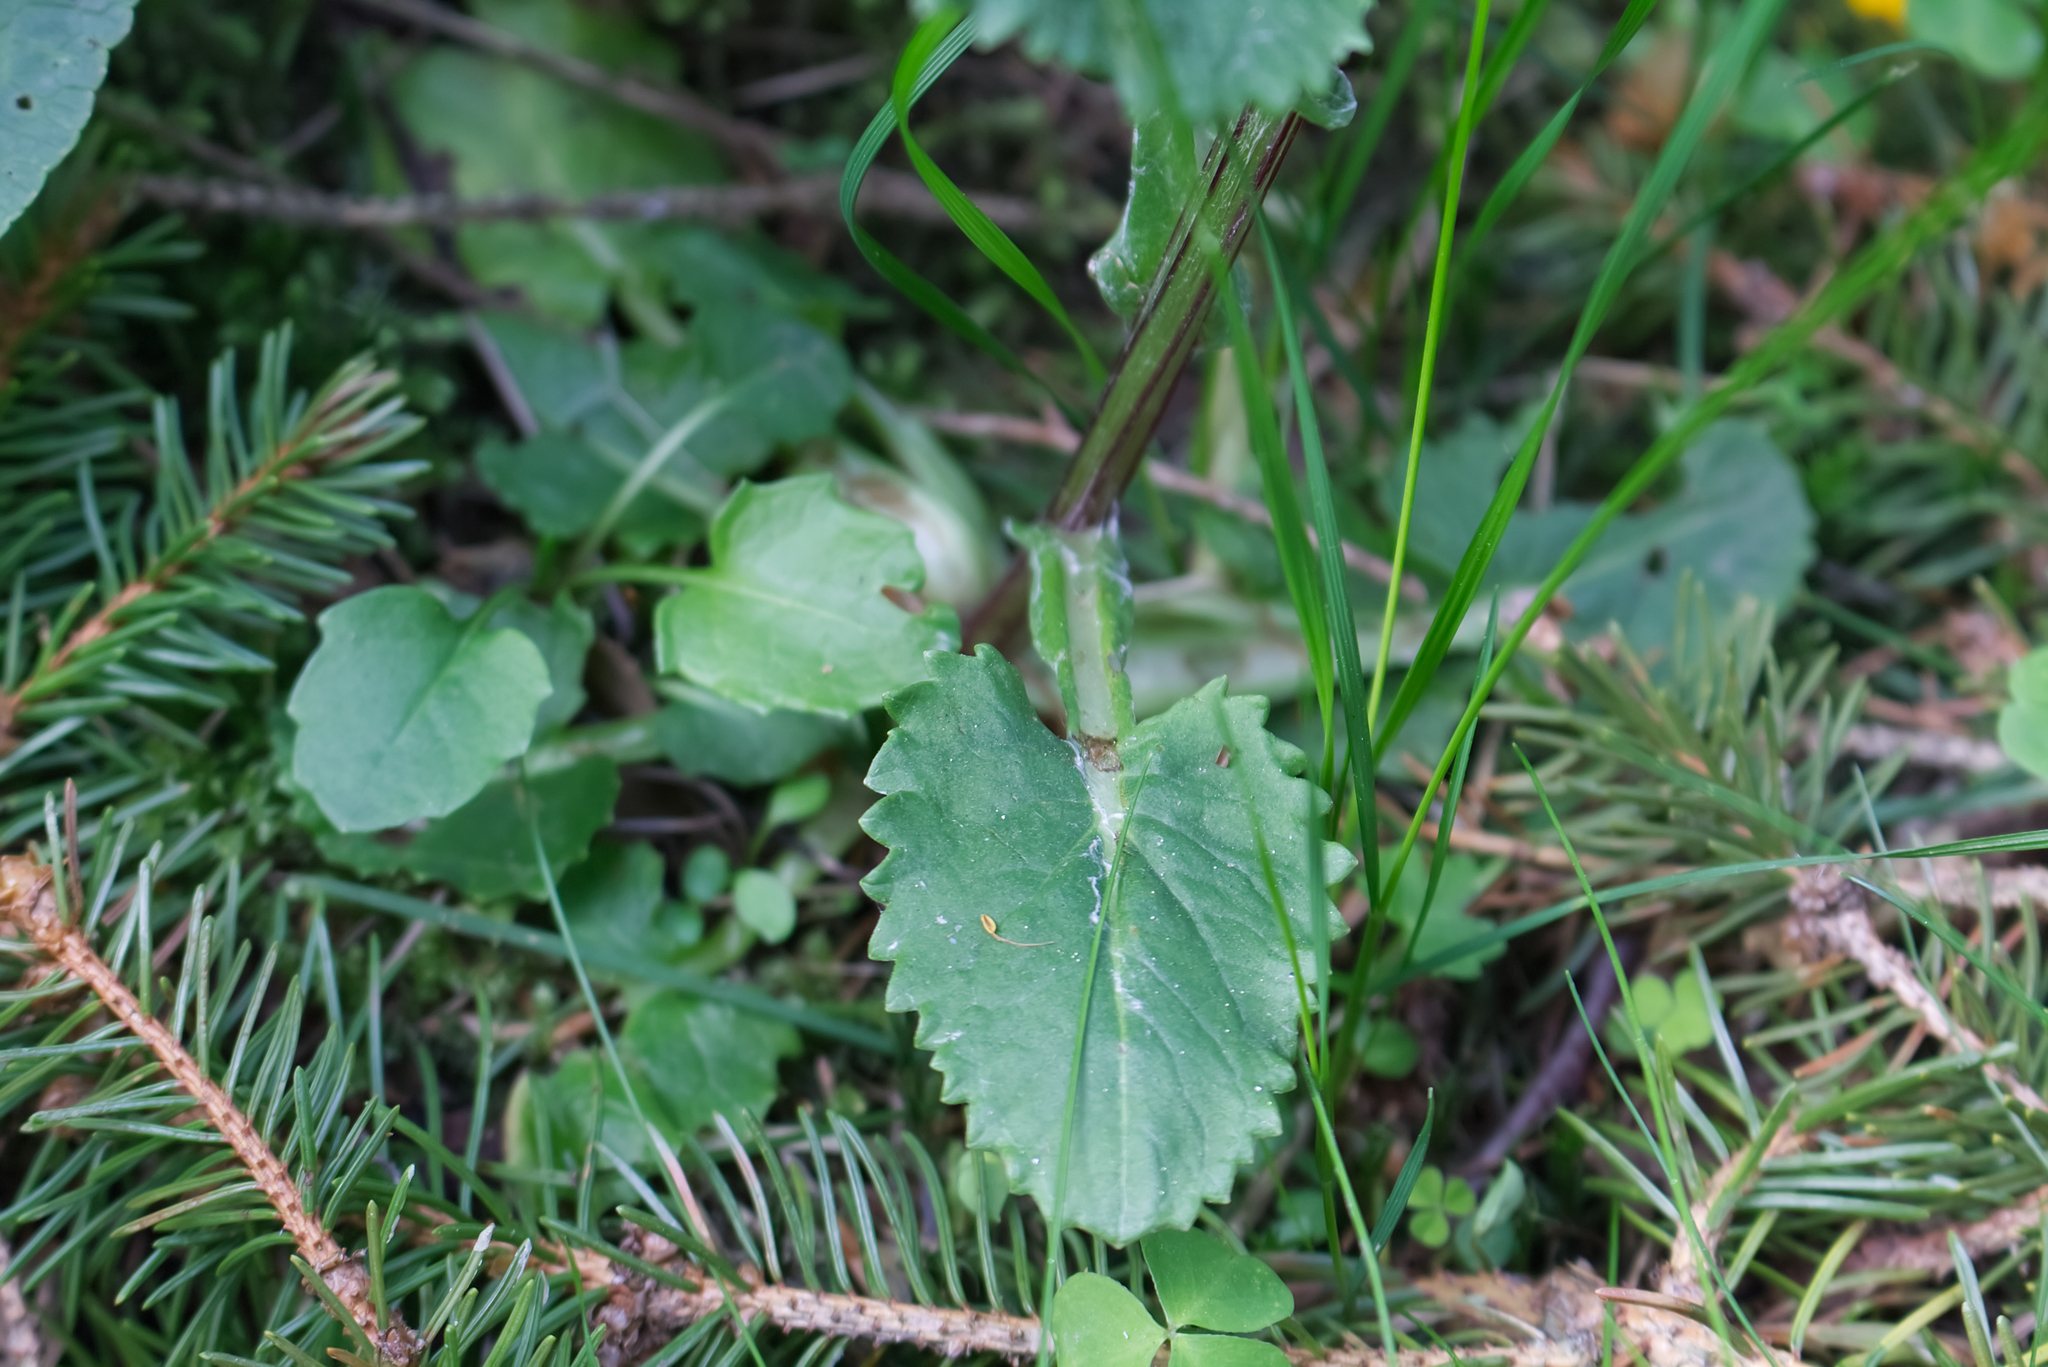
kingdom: Plantae
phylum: Tracheophyta
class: Magnoliopsida
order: Asterales
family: Asteraceae
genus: Tephroseris
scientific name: Tephroseris crispa
